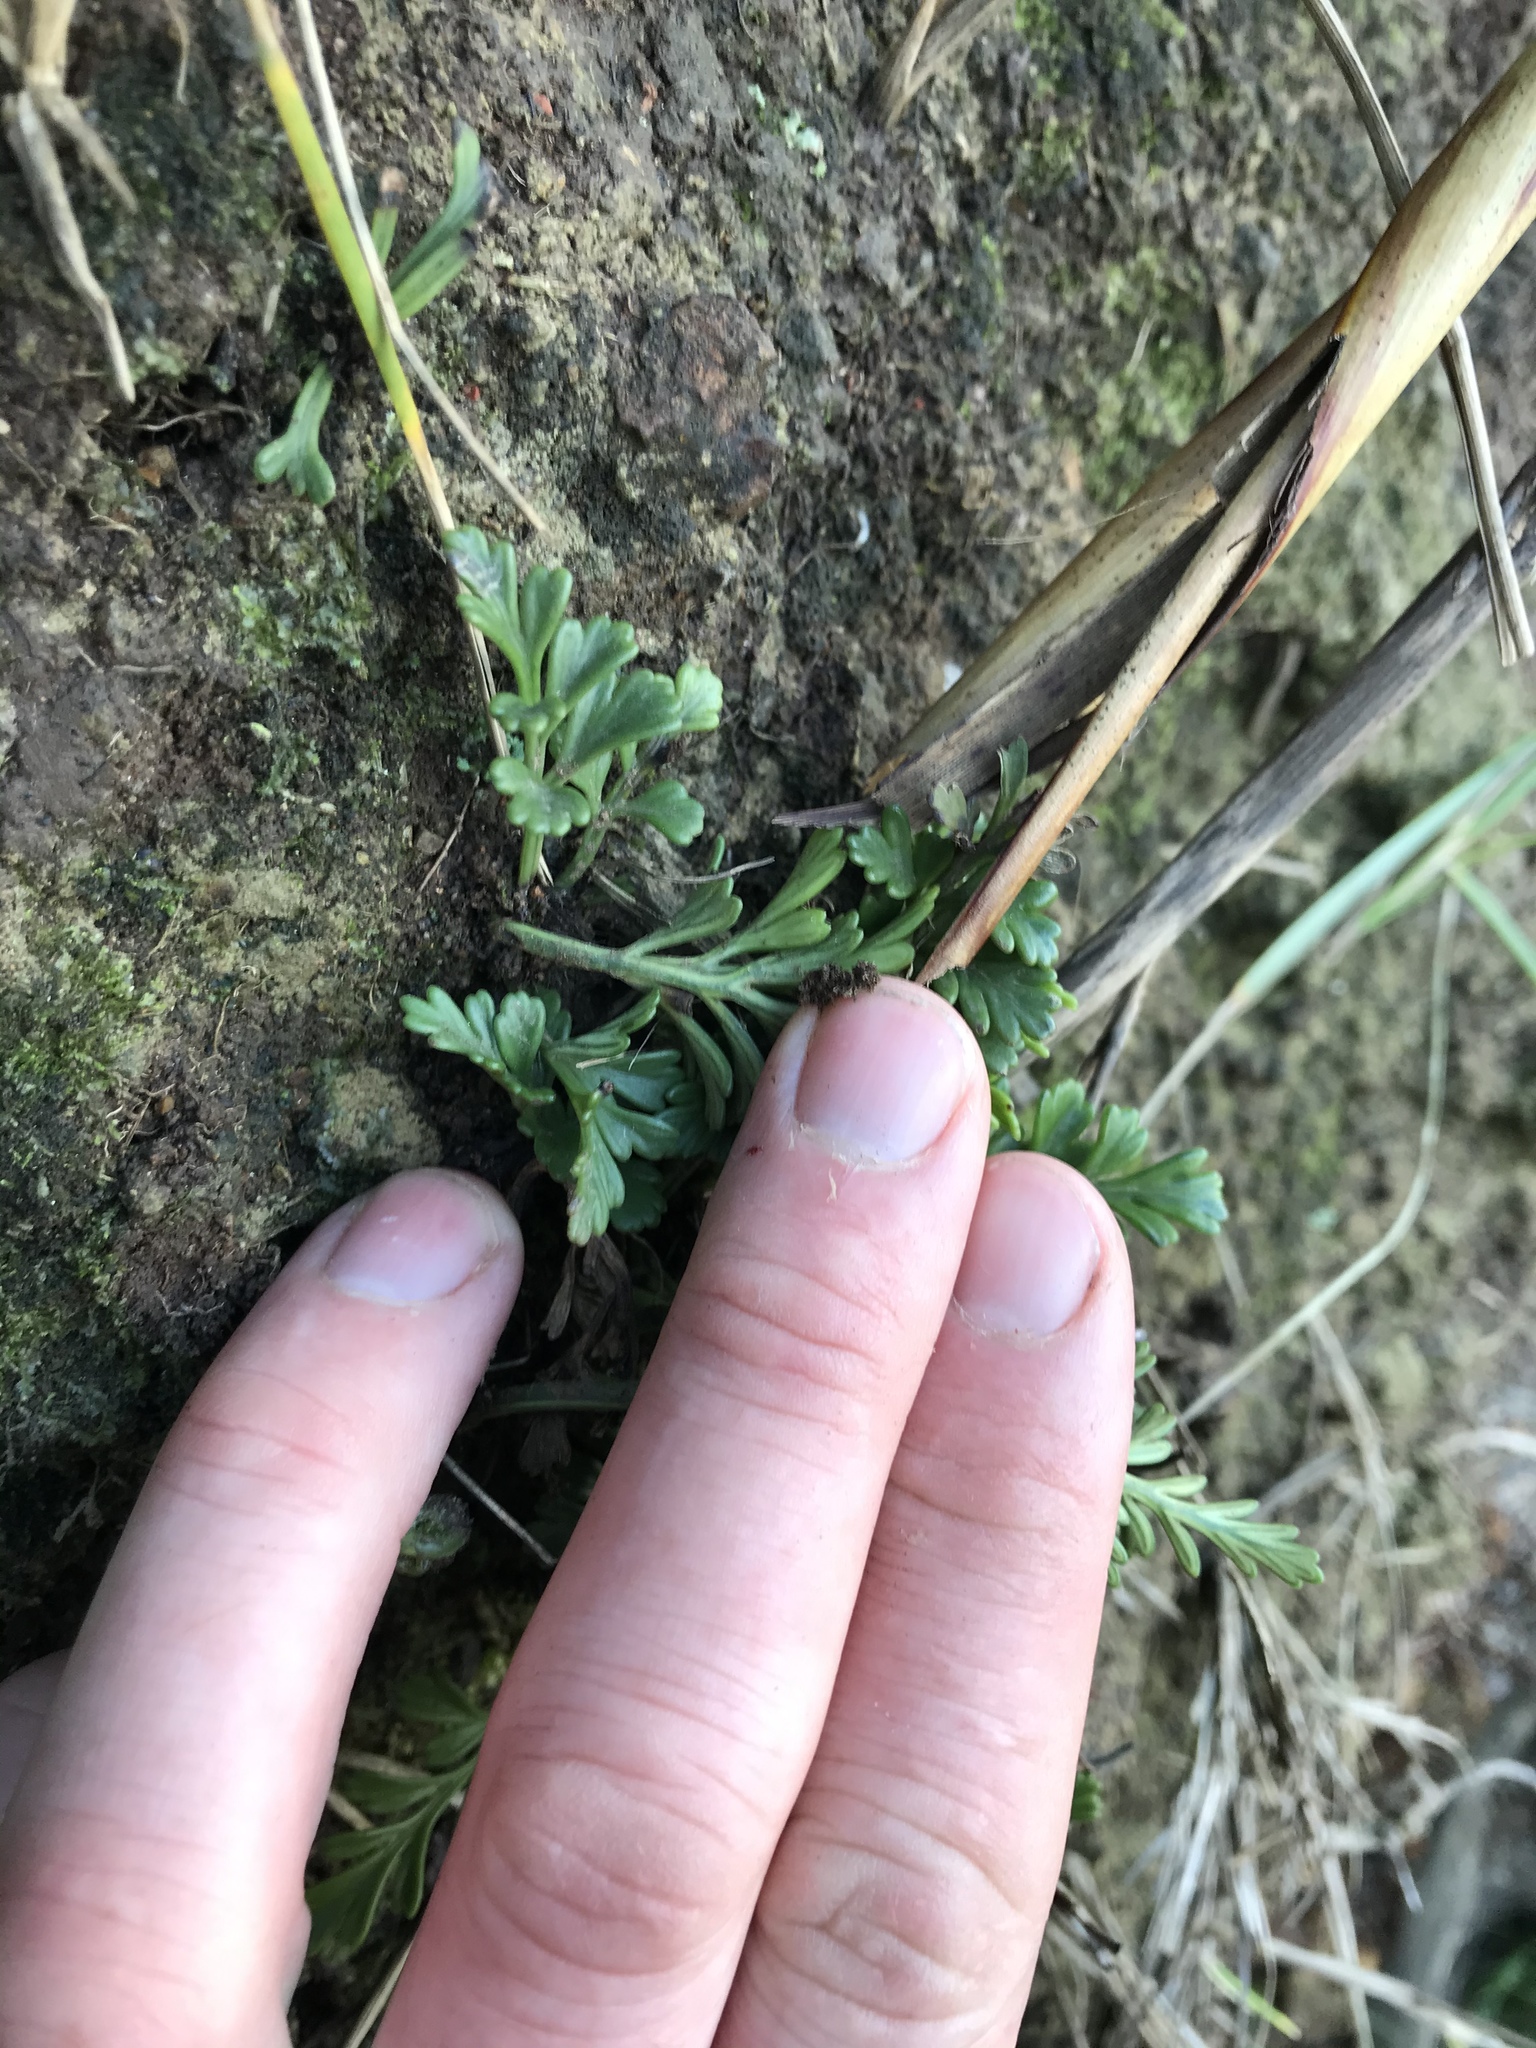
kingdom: Plantae
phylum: Tracheophyta
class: Polypodiopsida
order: Polypodiales
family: Aspleniaceae
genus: Asplenium
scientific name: Asplenium chathamense
